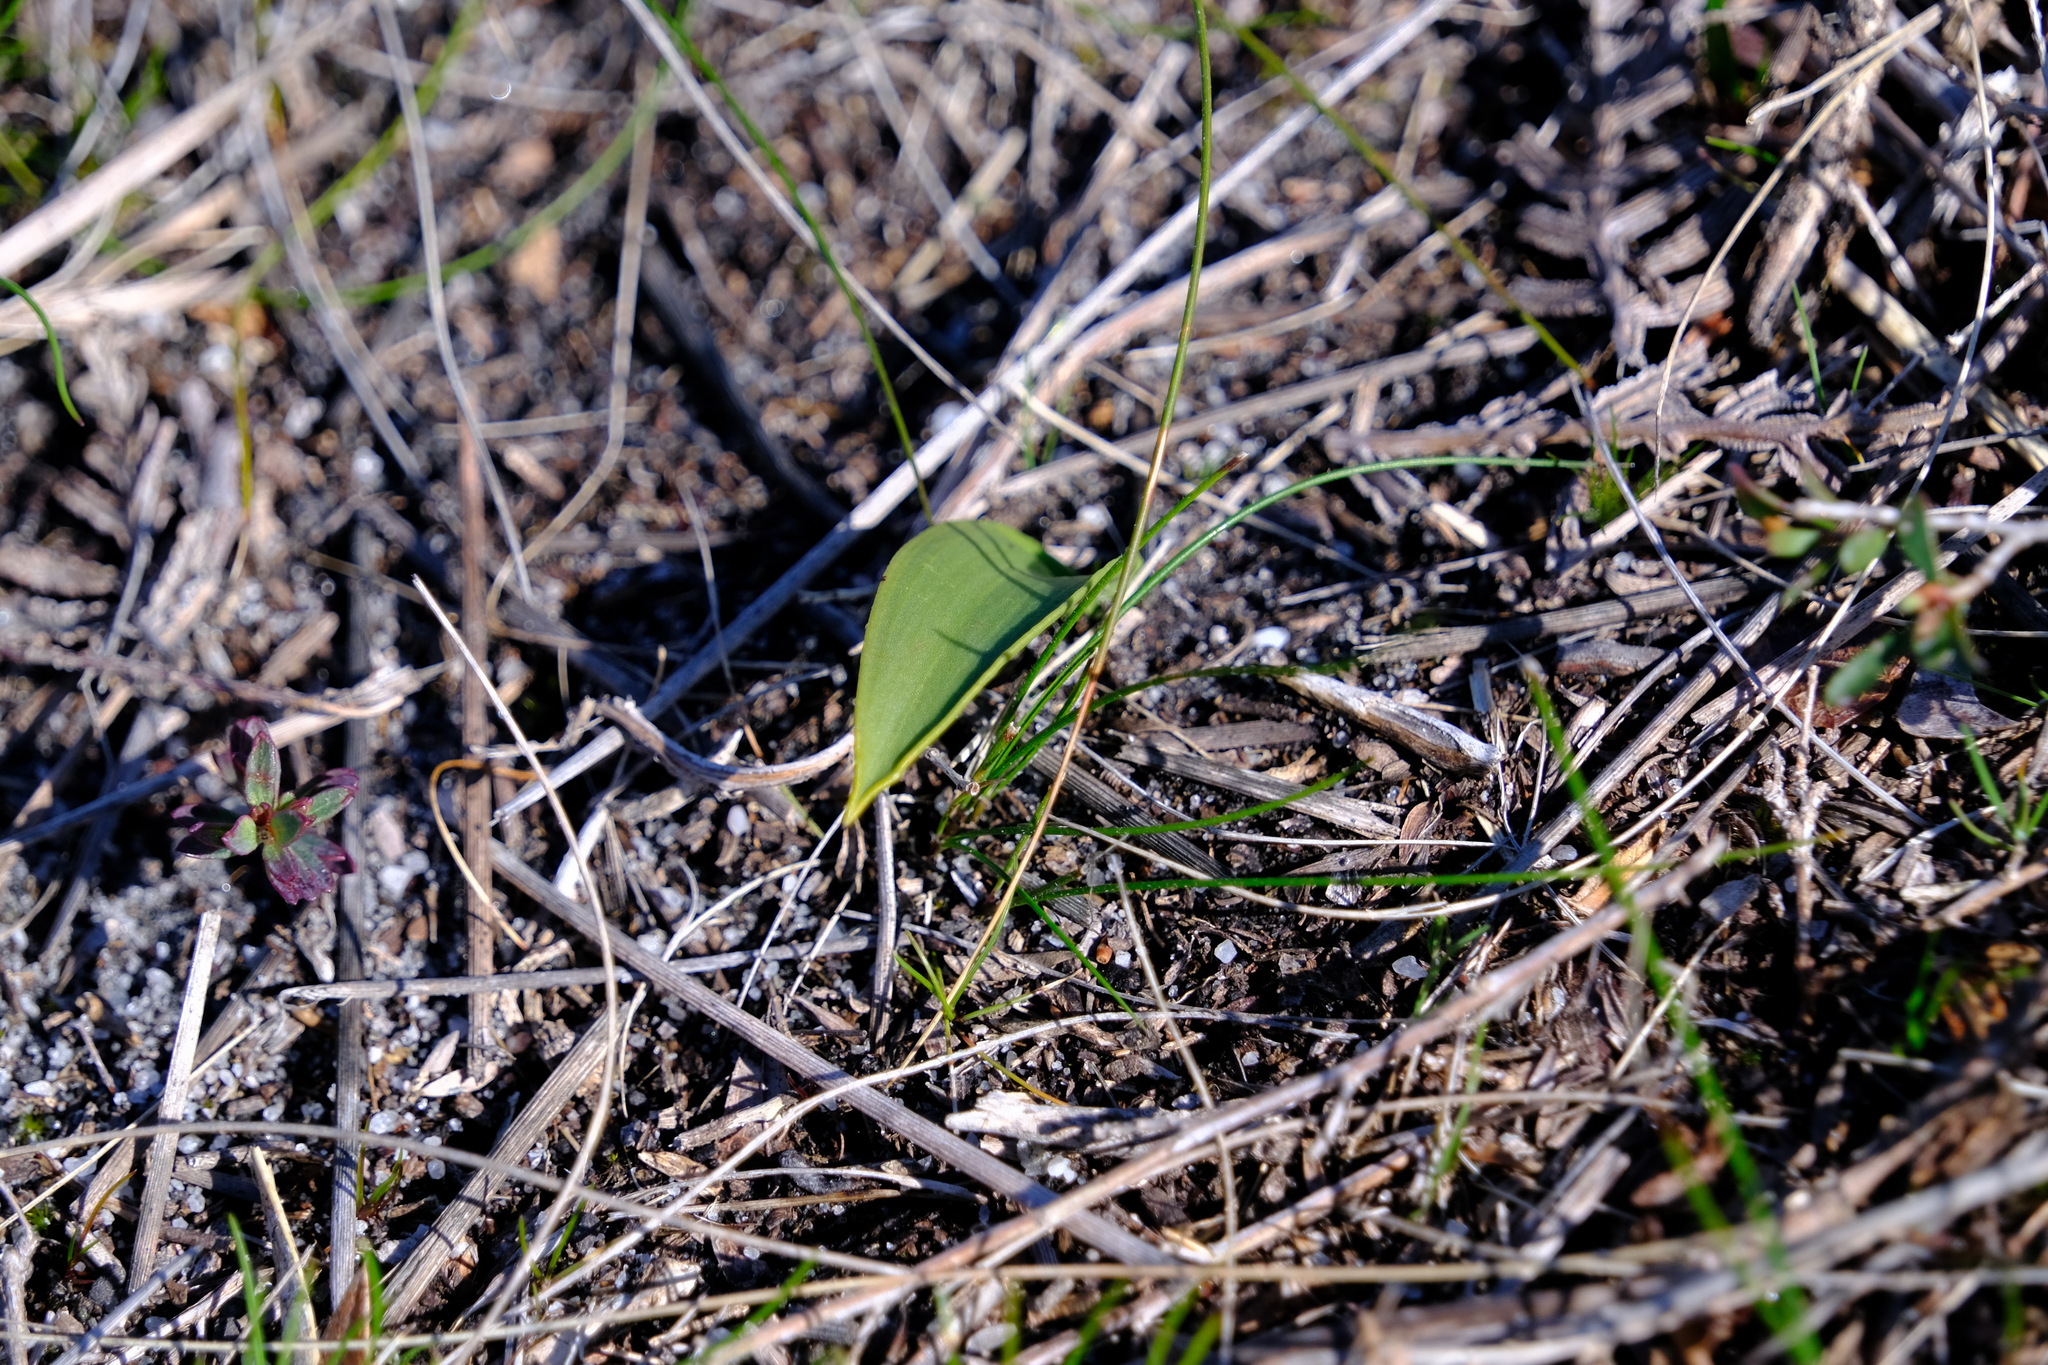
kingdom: Plantae
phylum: Tracheophyta
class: Liliopsida
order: Asparagales
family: Orchidaceae
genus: Thelymitra
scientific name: Thelymitra benthamiana
